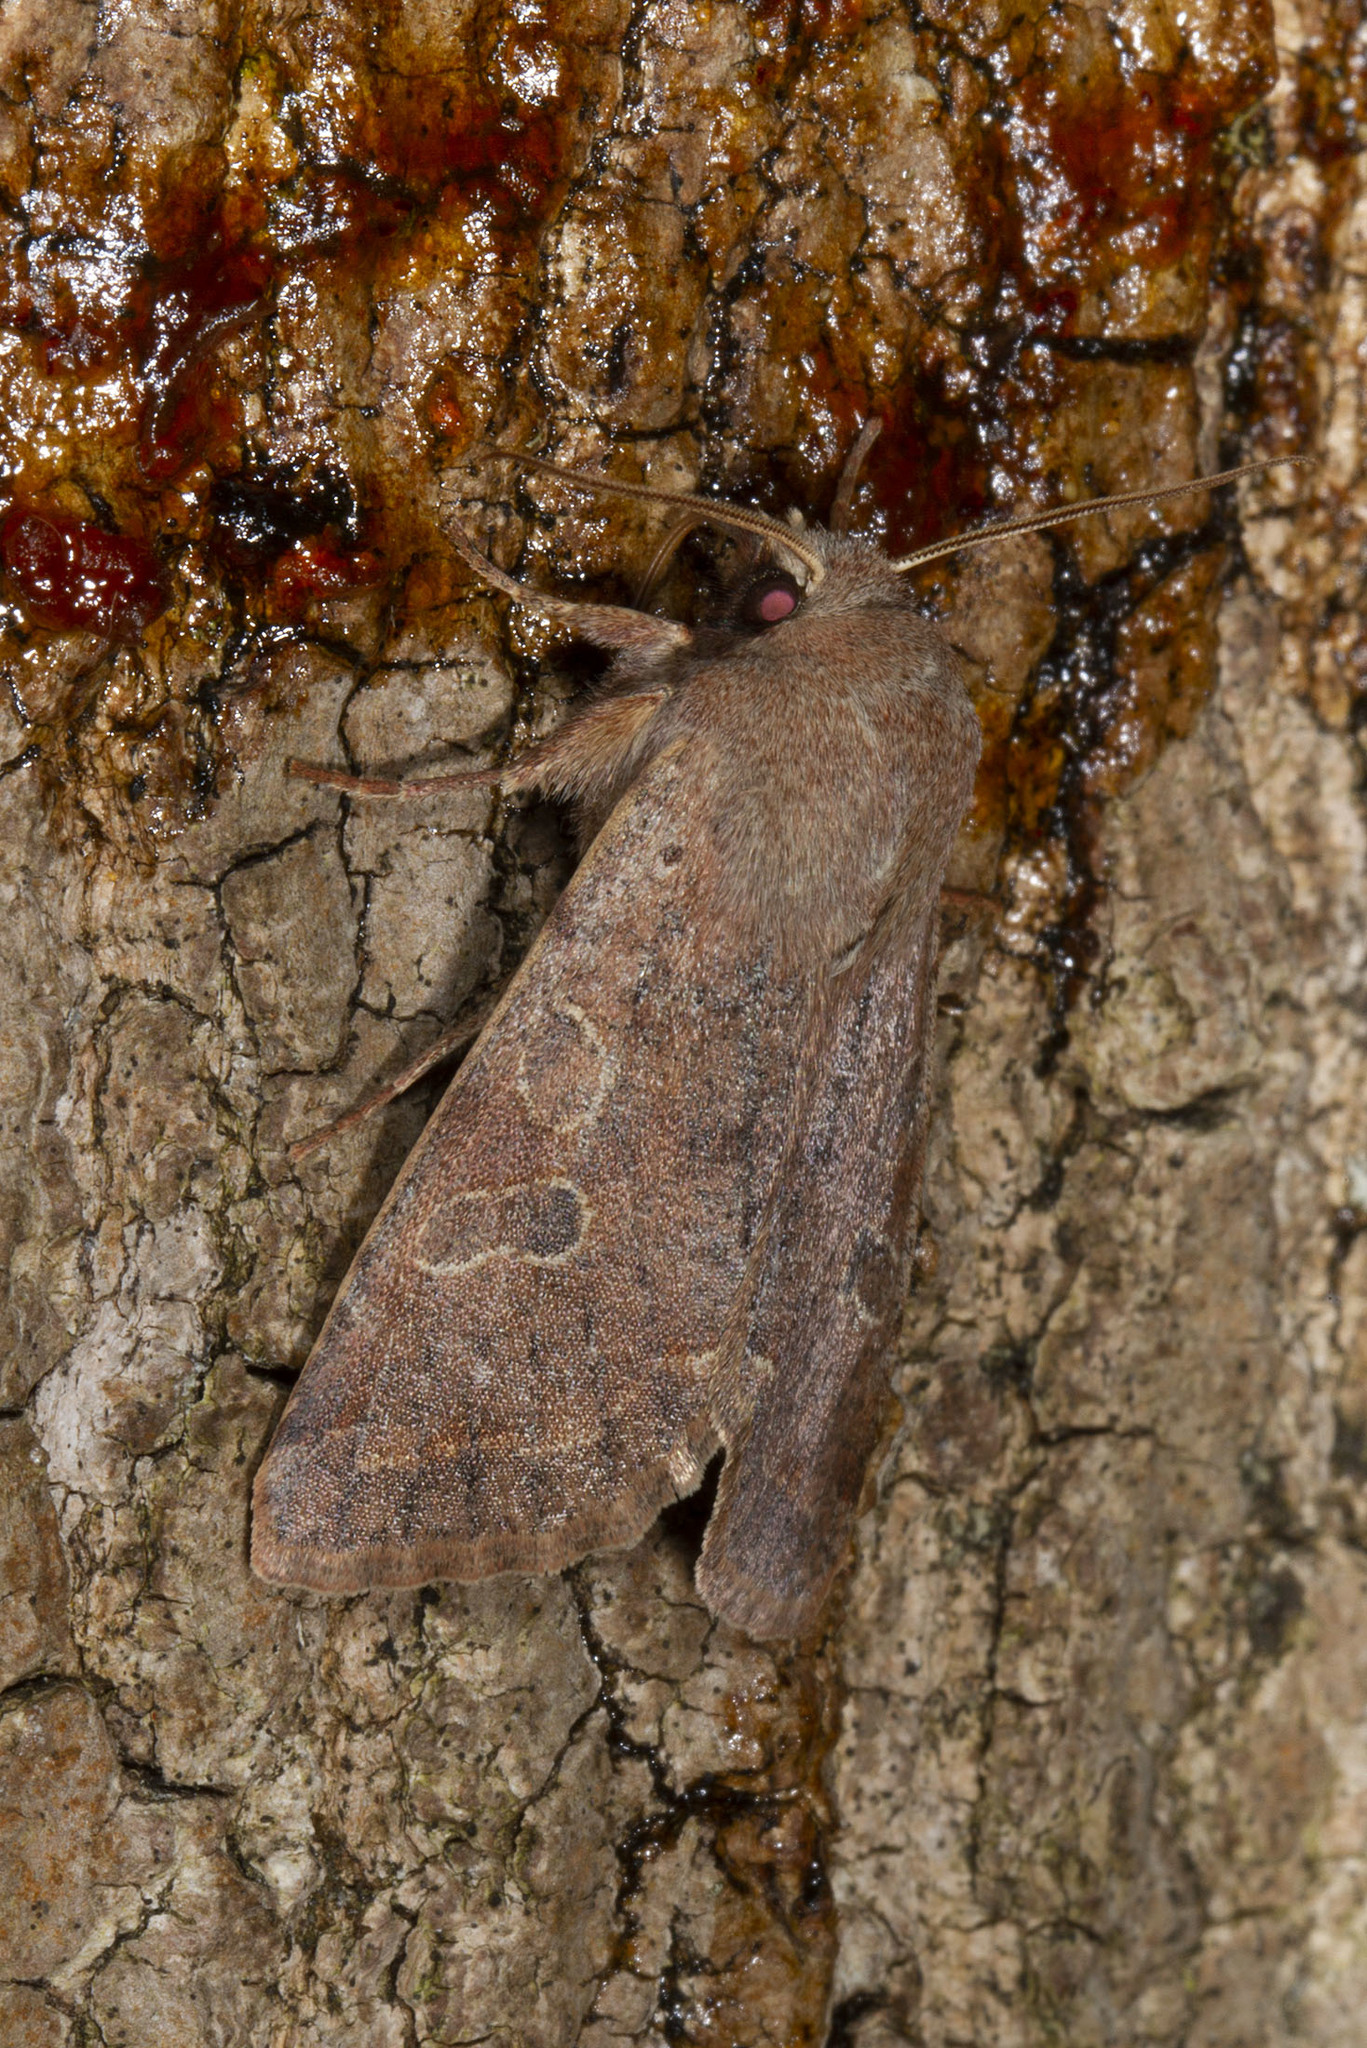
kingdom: Animalia
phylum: Arthropoda
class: Insecta
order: Lepidoptera
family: Noctuidae
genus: Orthosia
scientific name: Orthosia hibisci
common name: Green fruitworm
